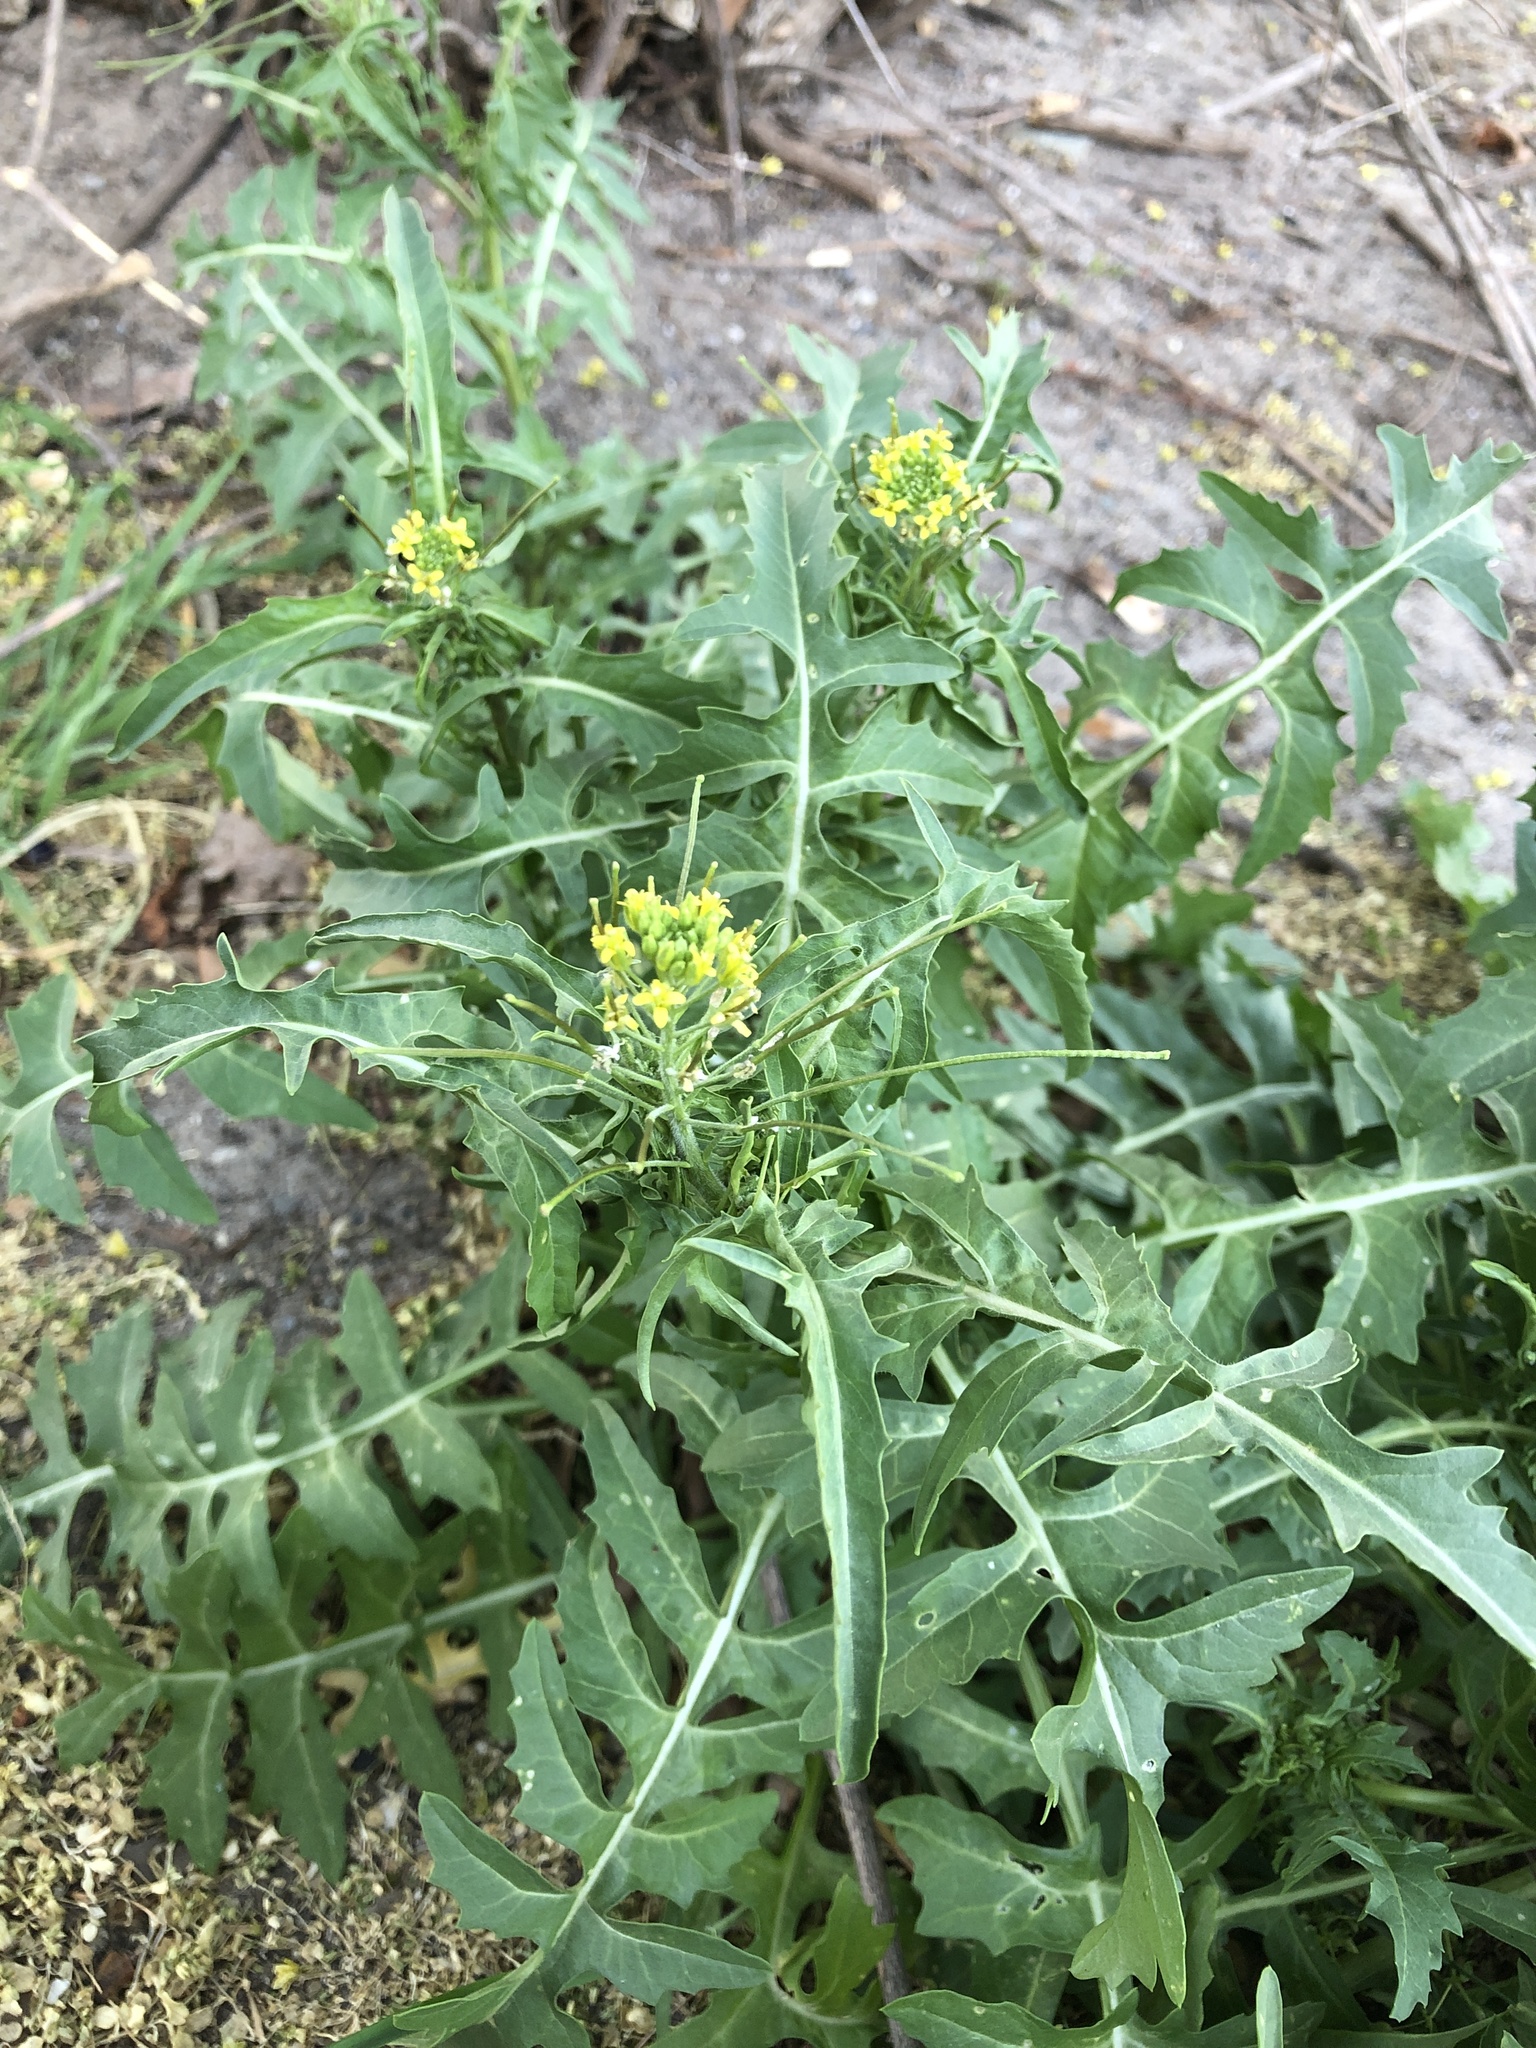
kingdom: Plantae
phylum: Tracheophyta
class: Magnoliopsida
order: Brassicales
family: Brassicaceae
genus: Sisymbrium
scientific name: Sisymbrium loeselii
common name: False london-rocket
